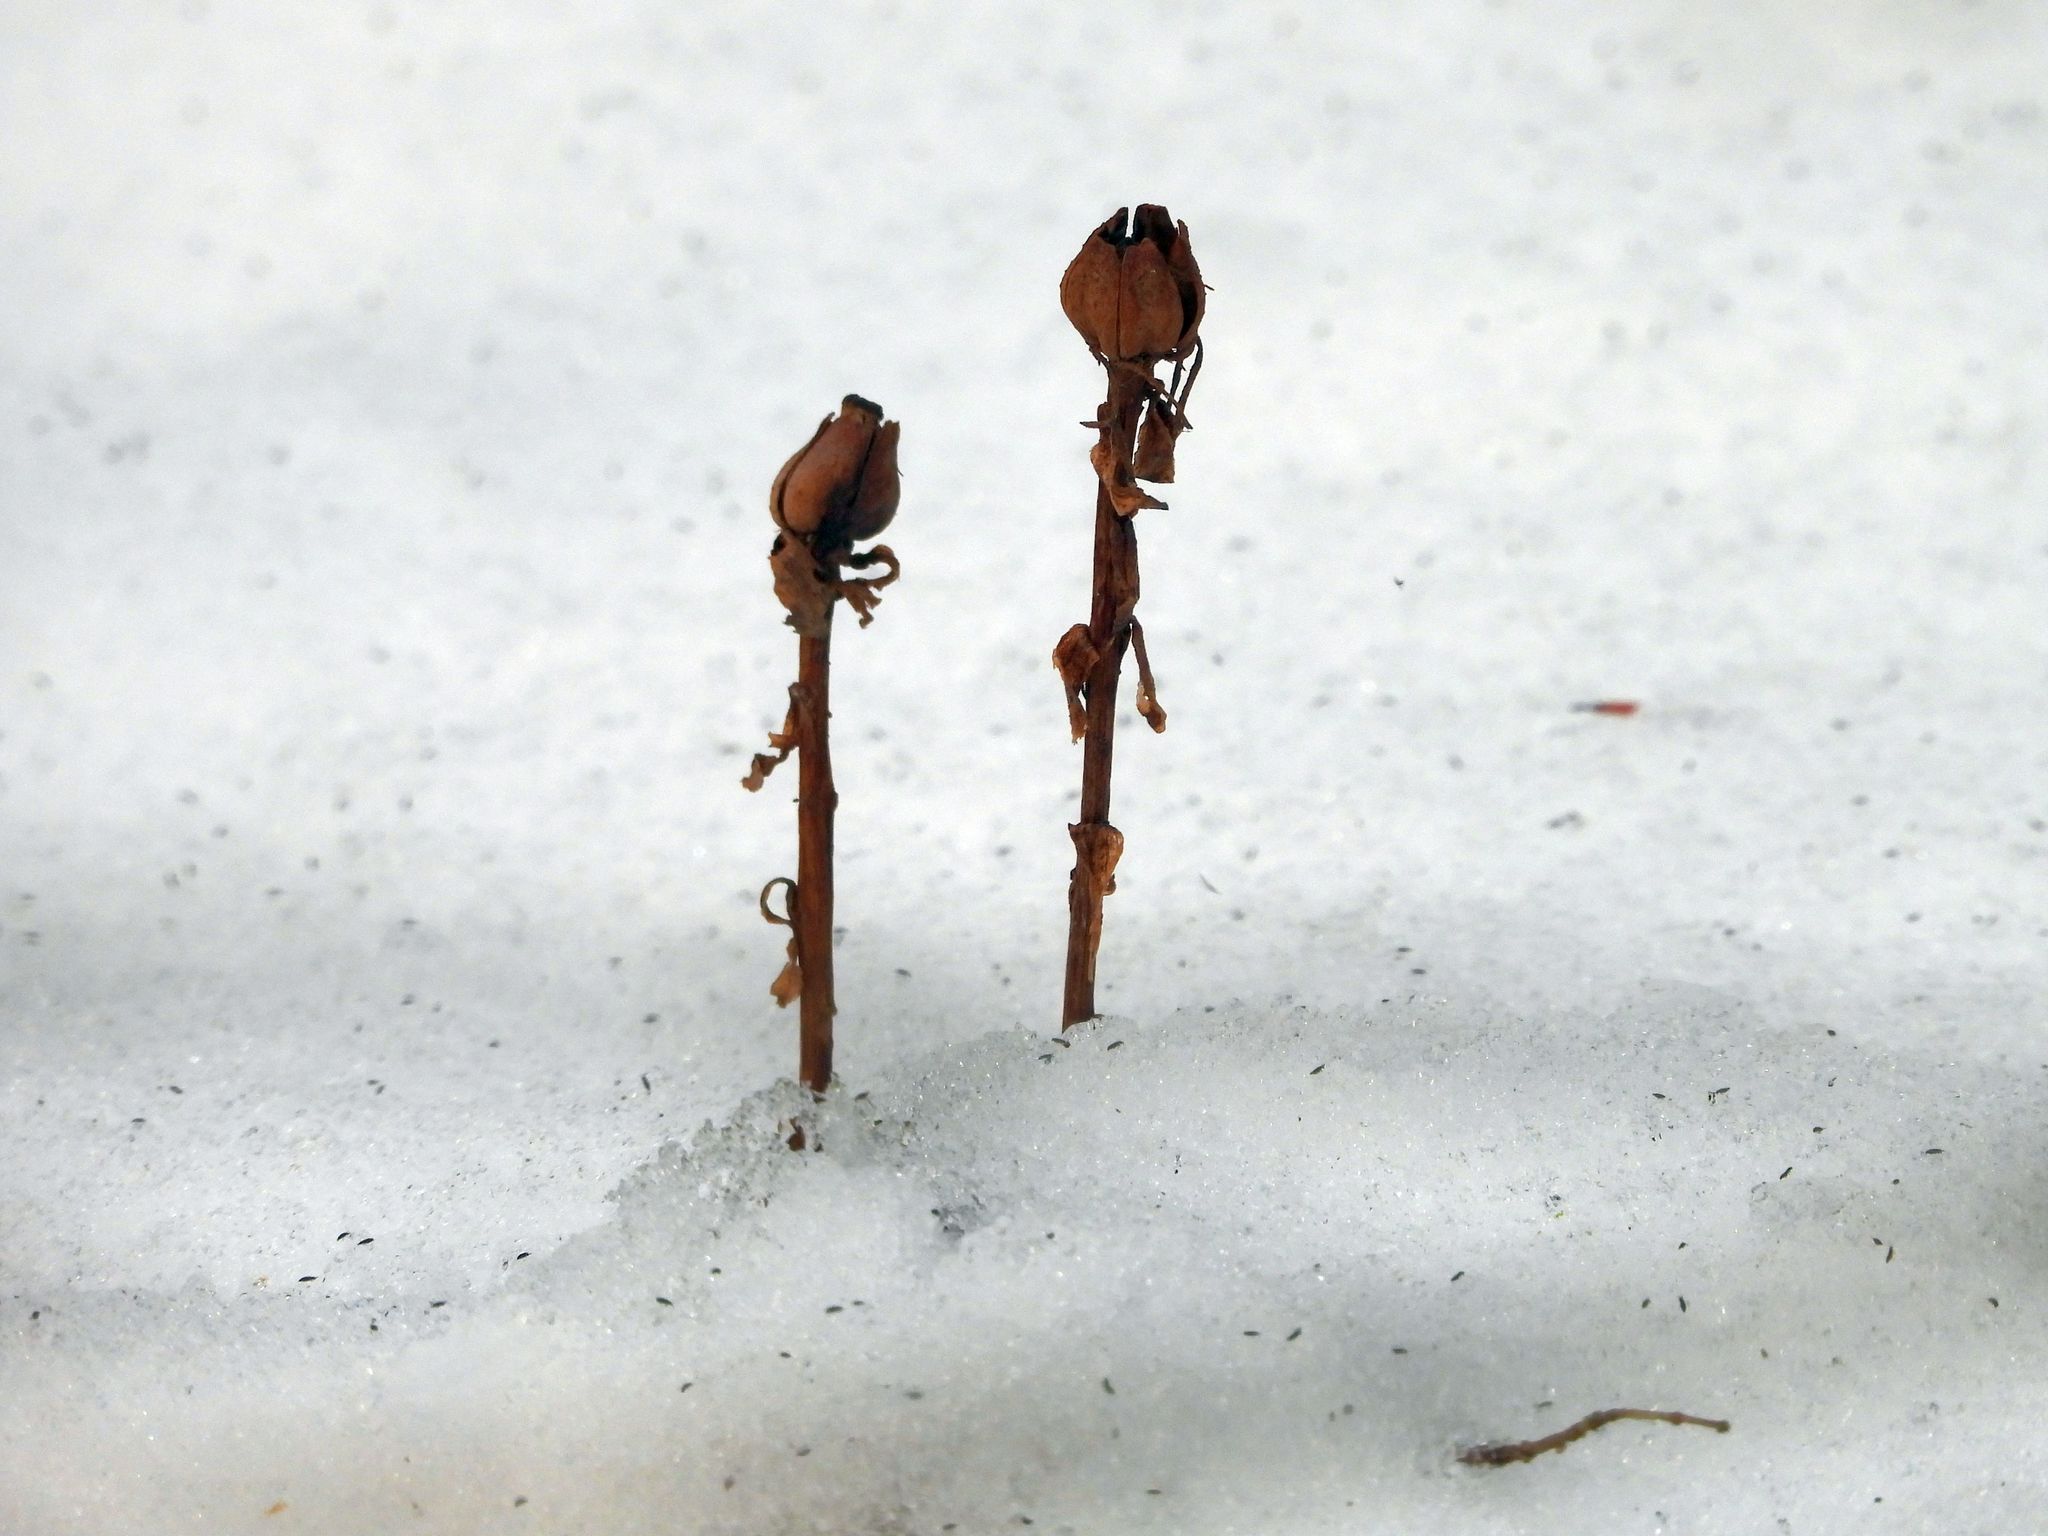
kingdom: Plantae
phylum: Tracheophyta
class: Magnoliopsida
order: Ericales
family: Ericaceae
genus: Monotropa
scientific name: Monotropa uniflora
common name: Convulsion root
